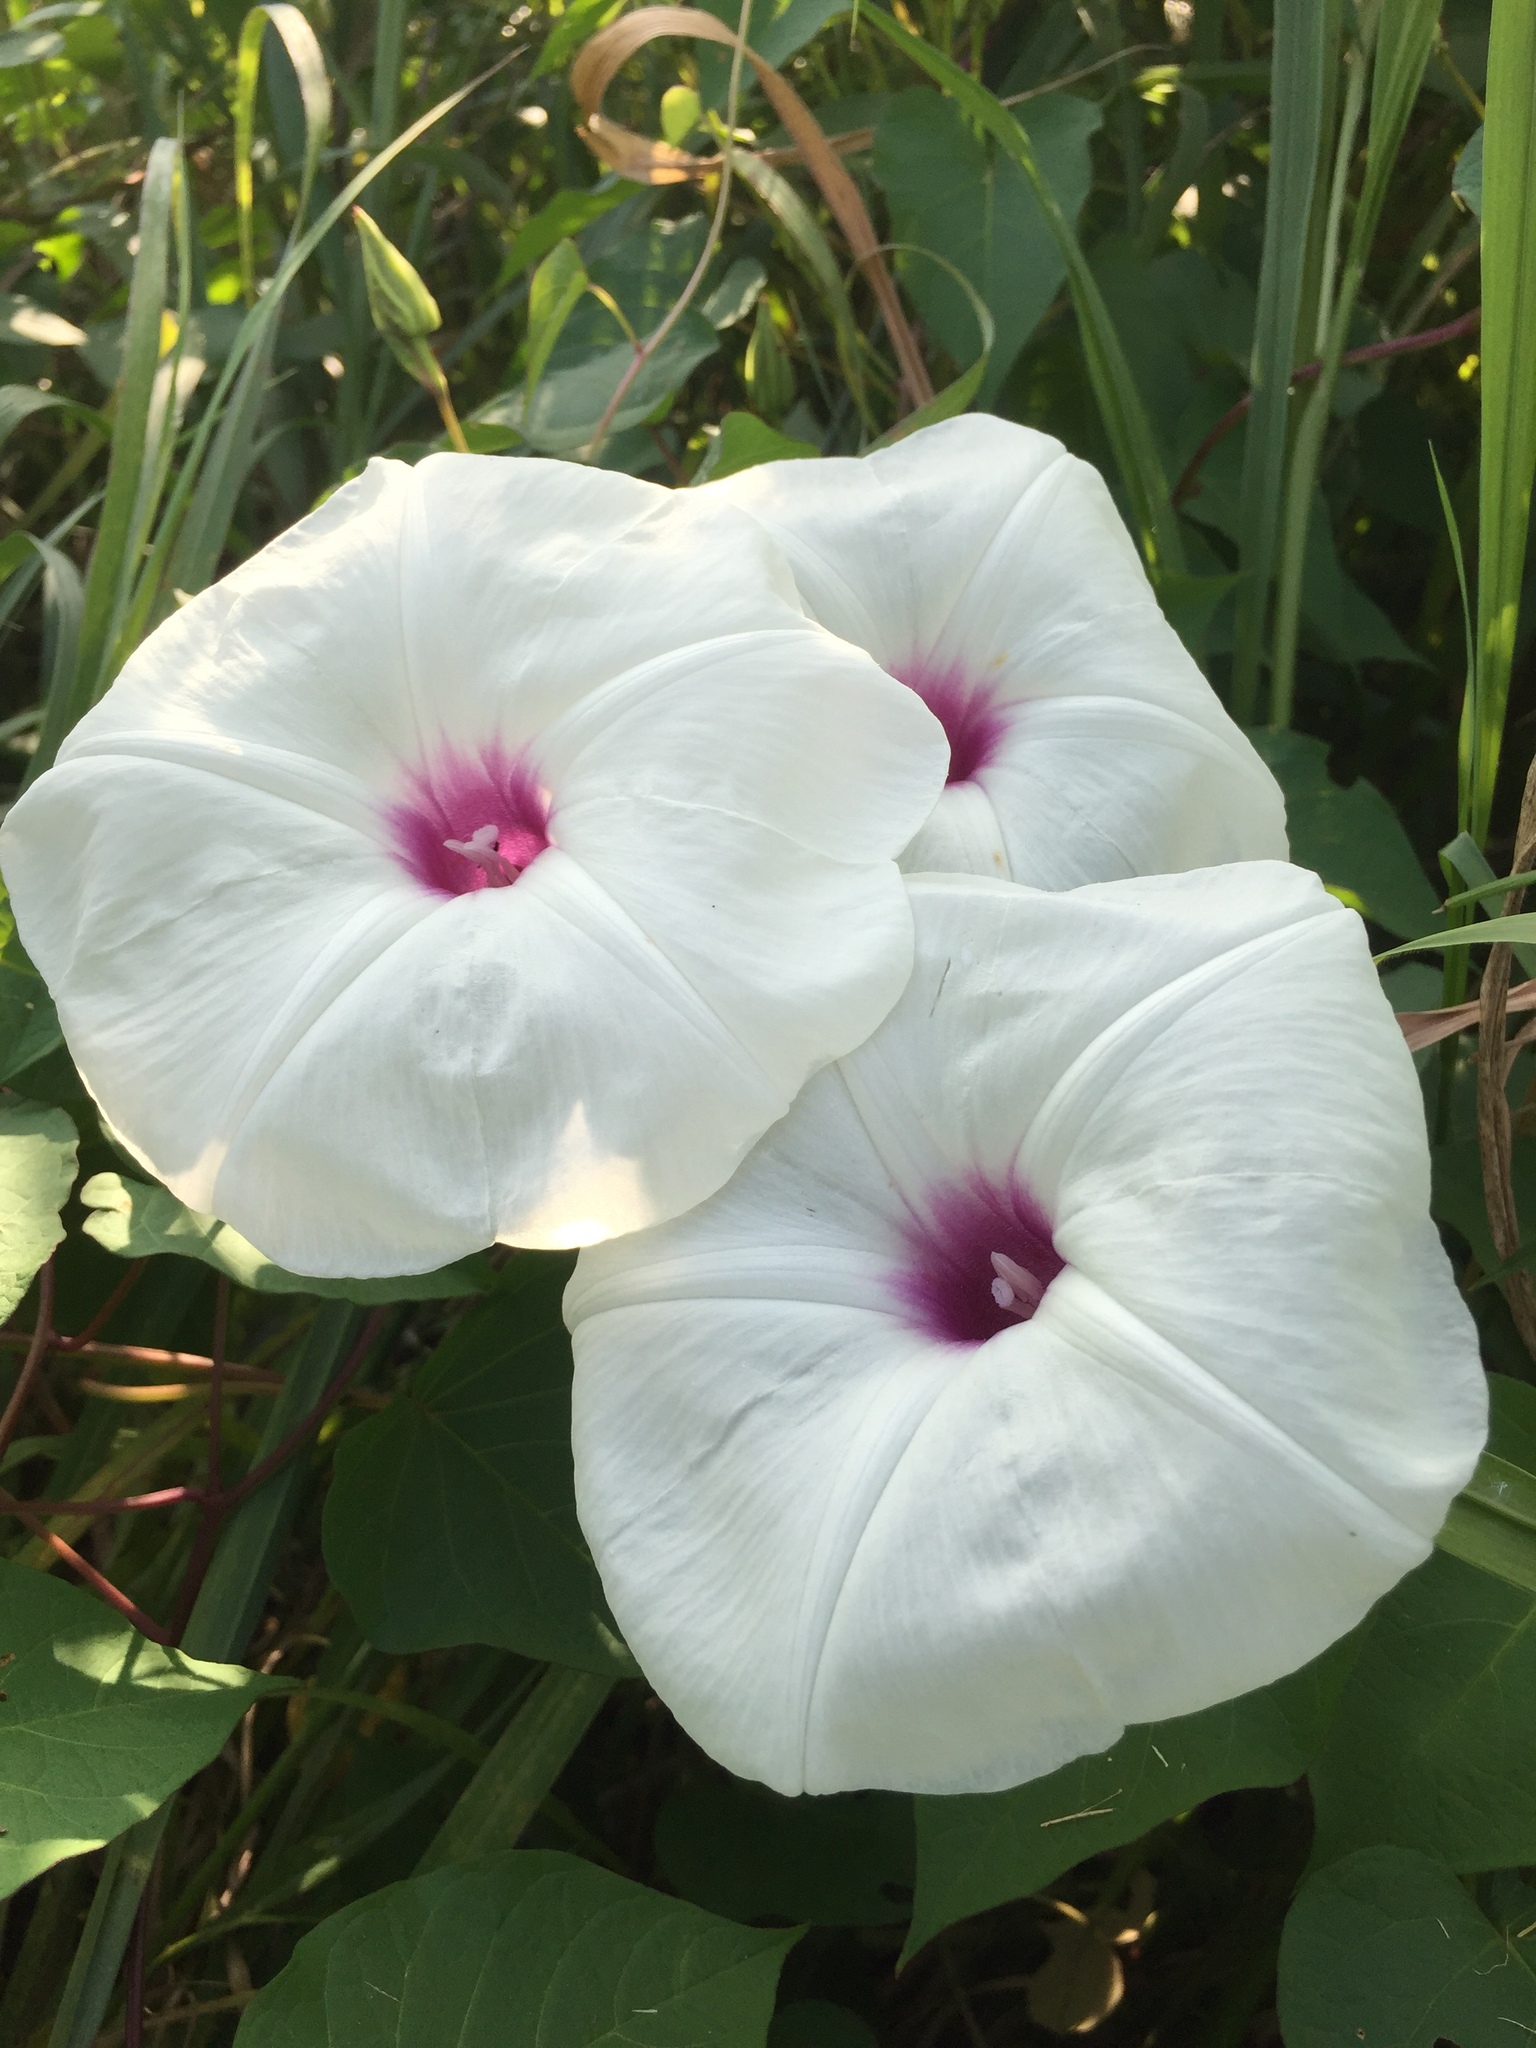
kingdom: Plantae
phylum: Tracheophyta
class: Magnoliopsida
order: Solanales
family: Convolvulaceae
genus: Ipomoea
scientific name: Ipomoea pandurata
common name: Man-of-the-earth
